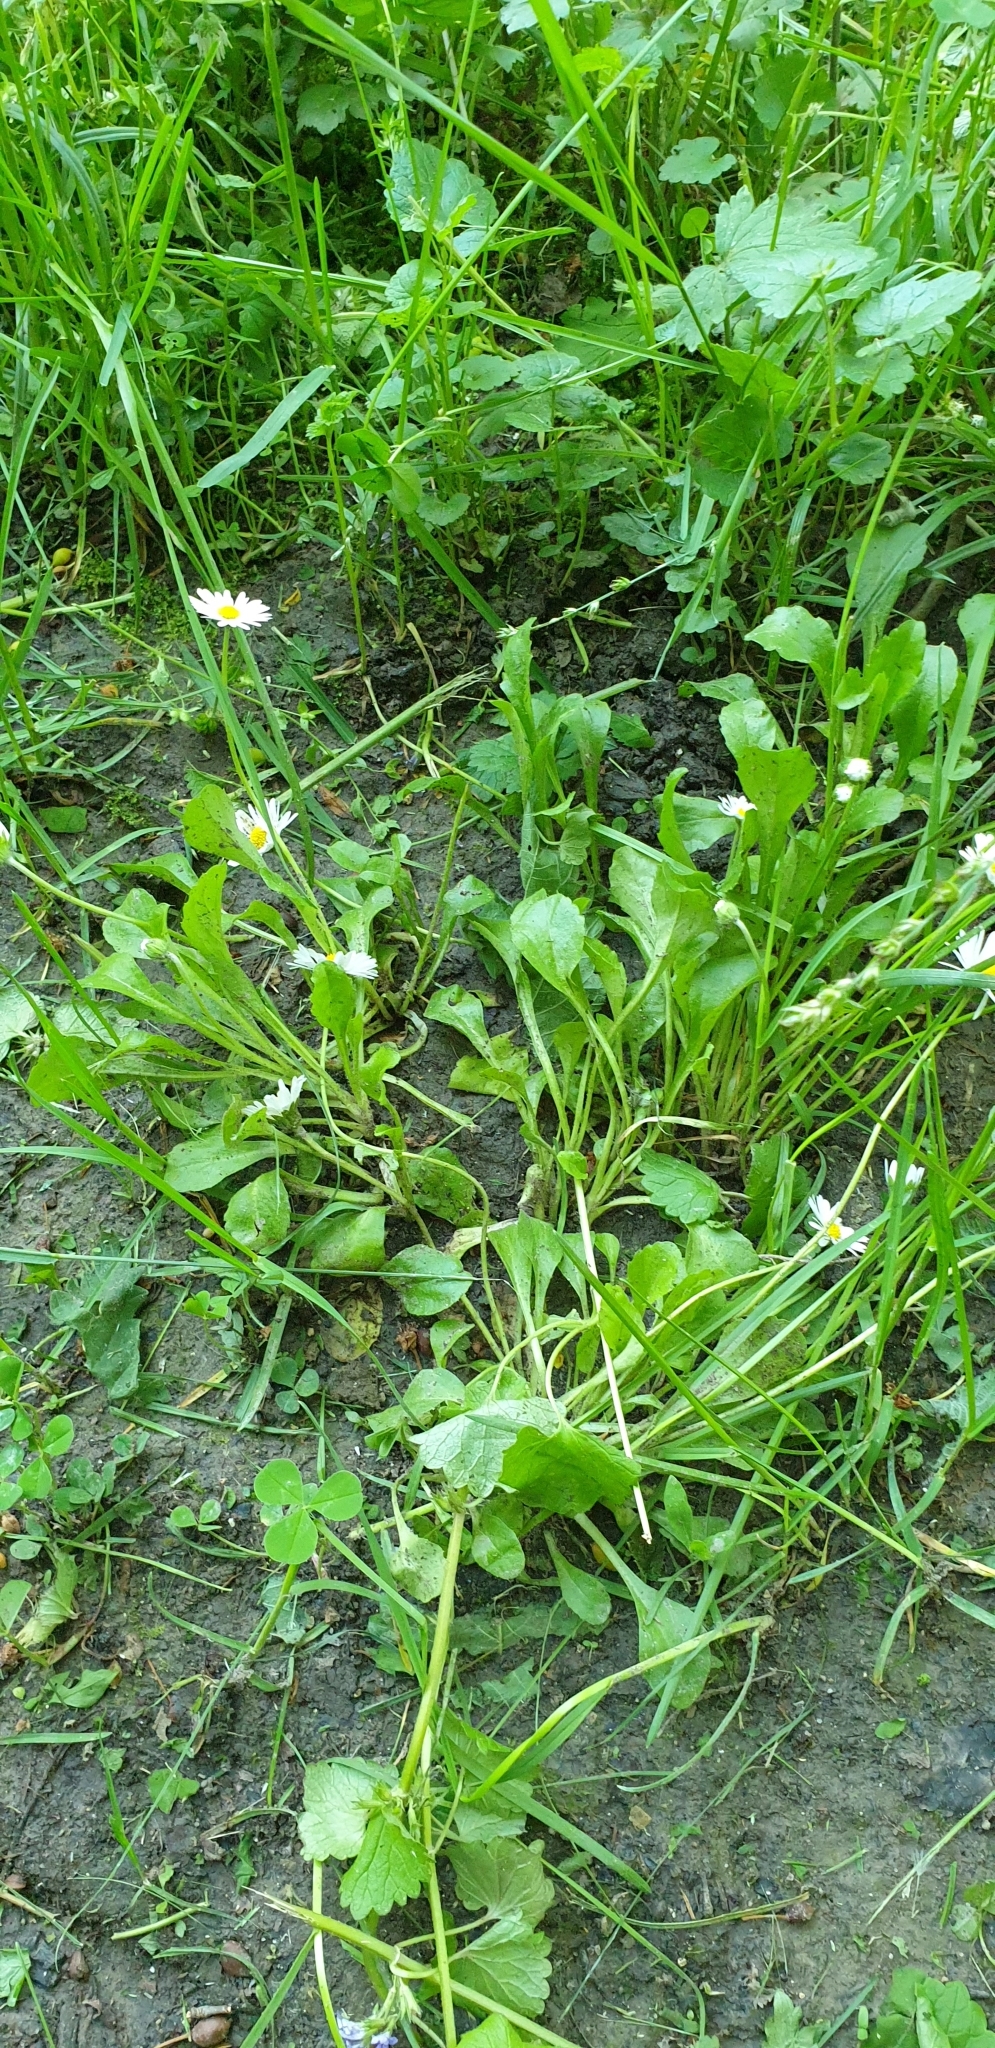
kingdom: Plantae
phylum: Tracheophyta
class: Magnoliopsida
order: Asterales
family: Asteraceae
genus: Bellis
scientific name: Bellis perennis
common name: Lawndaisy
